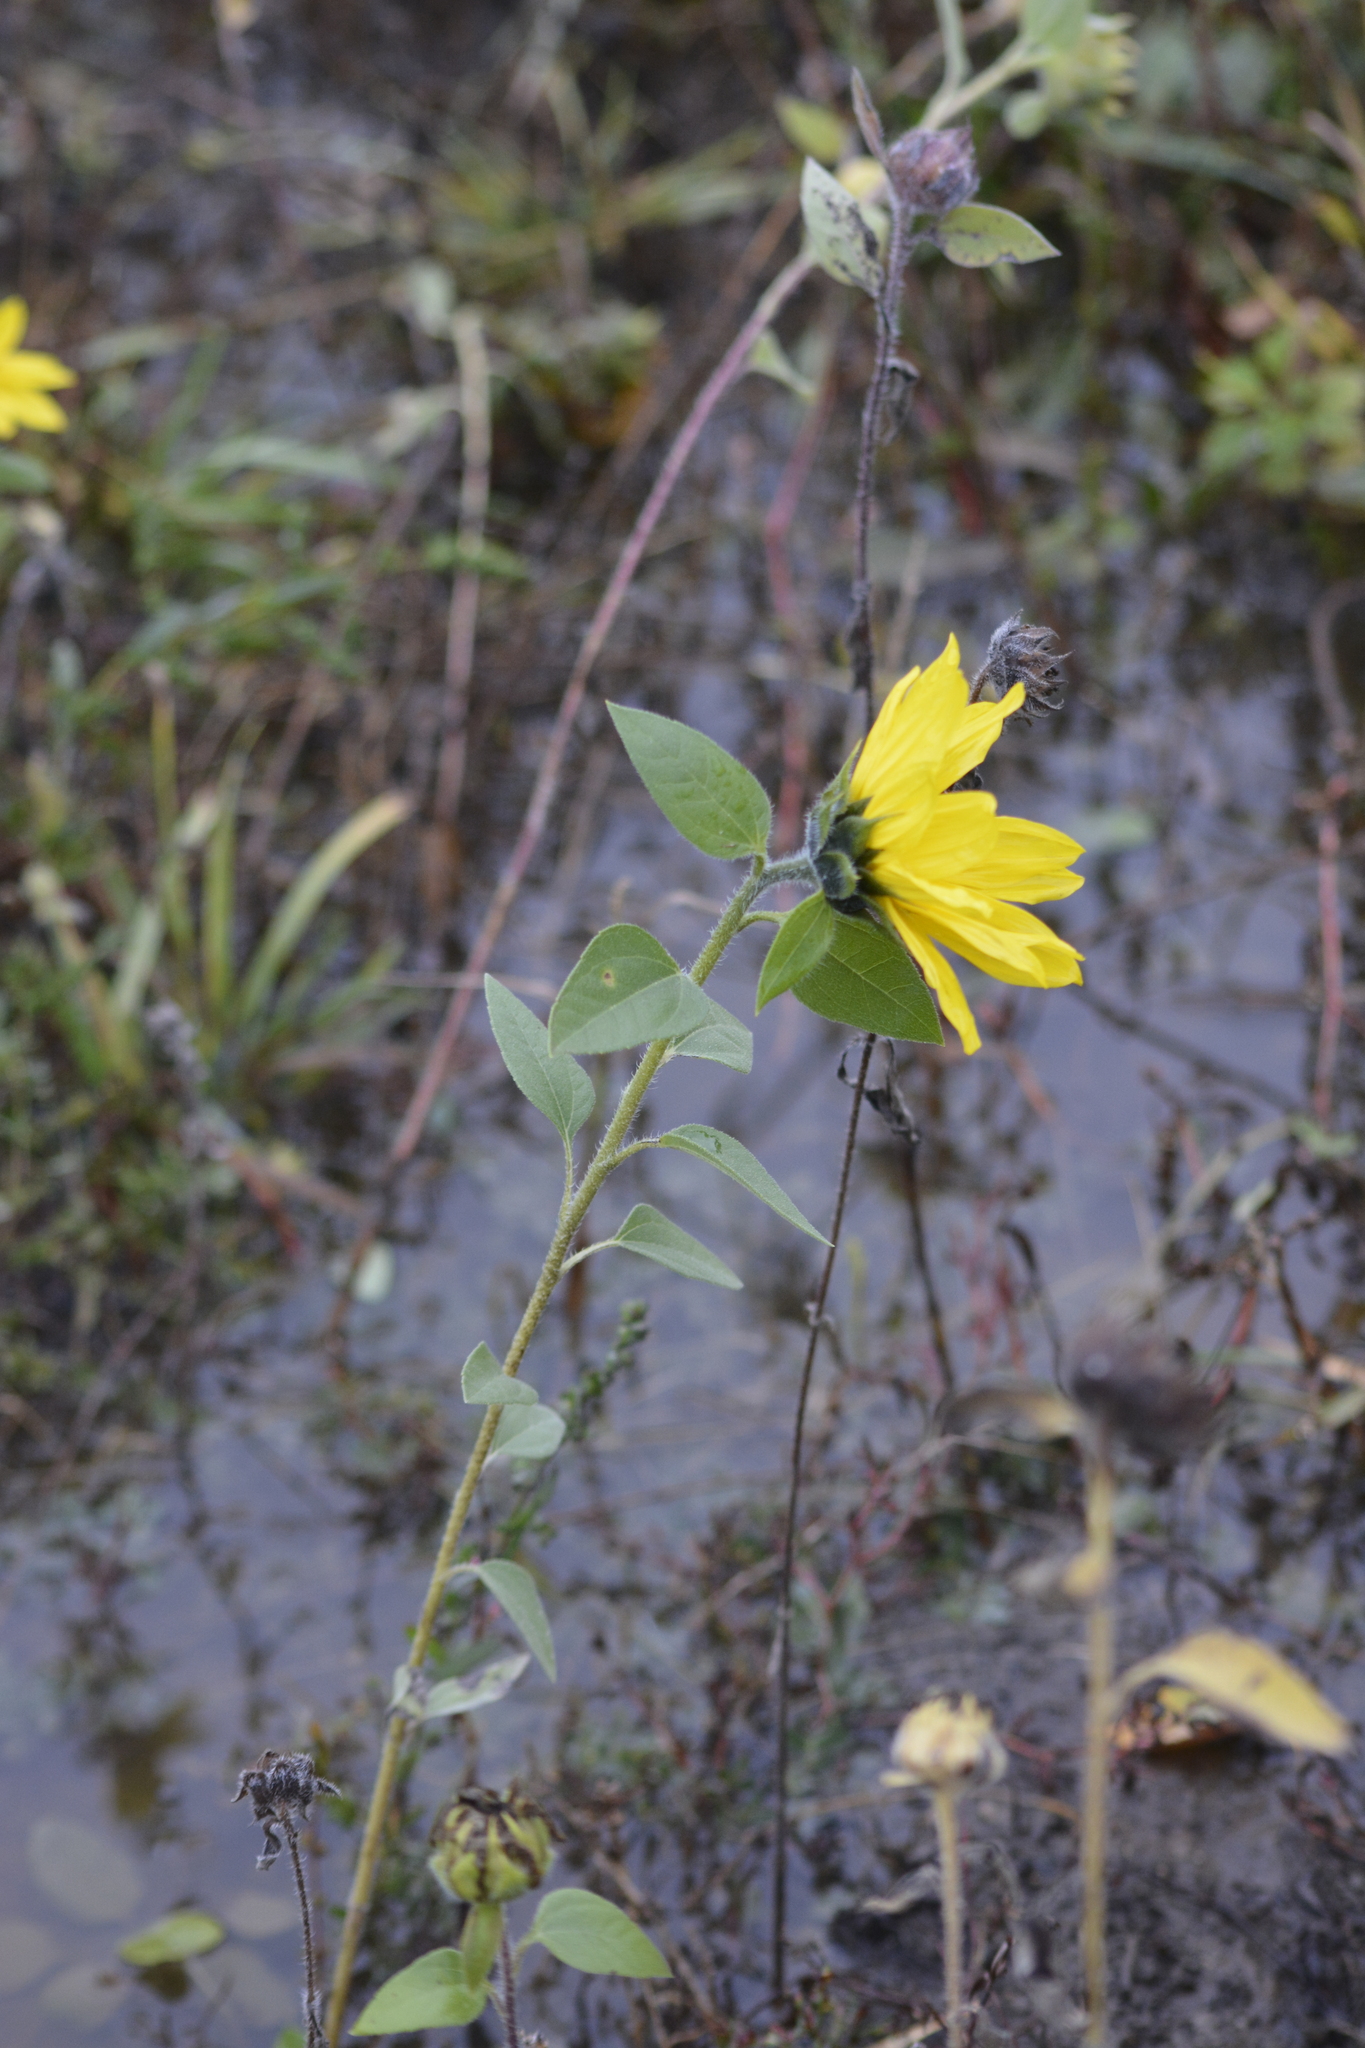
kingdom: Plantae
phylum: Tracheophyta
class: Magnoliopsida
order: Asterales
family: Asteraceae
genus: Helianthus
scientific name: Helianthus annuus
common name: Sunflower
